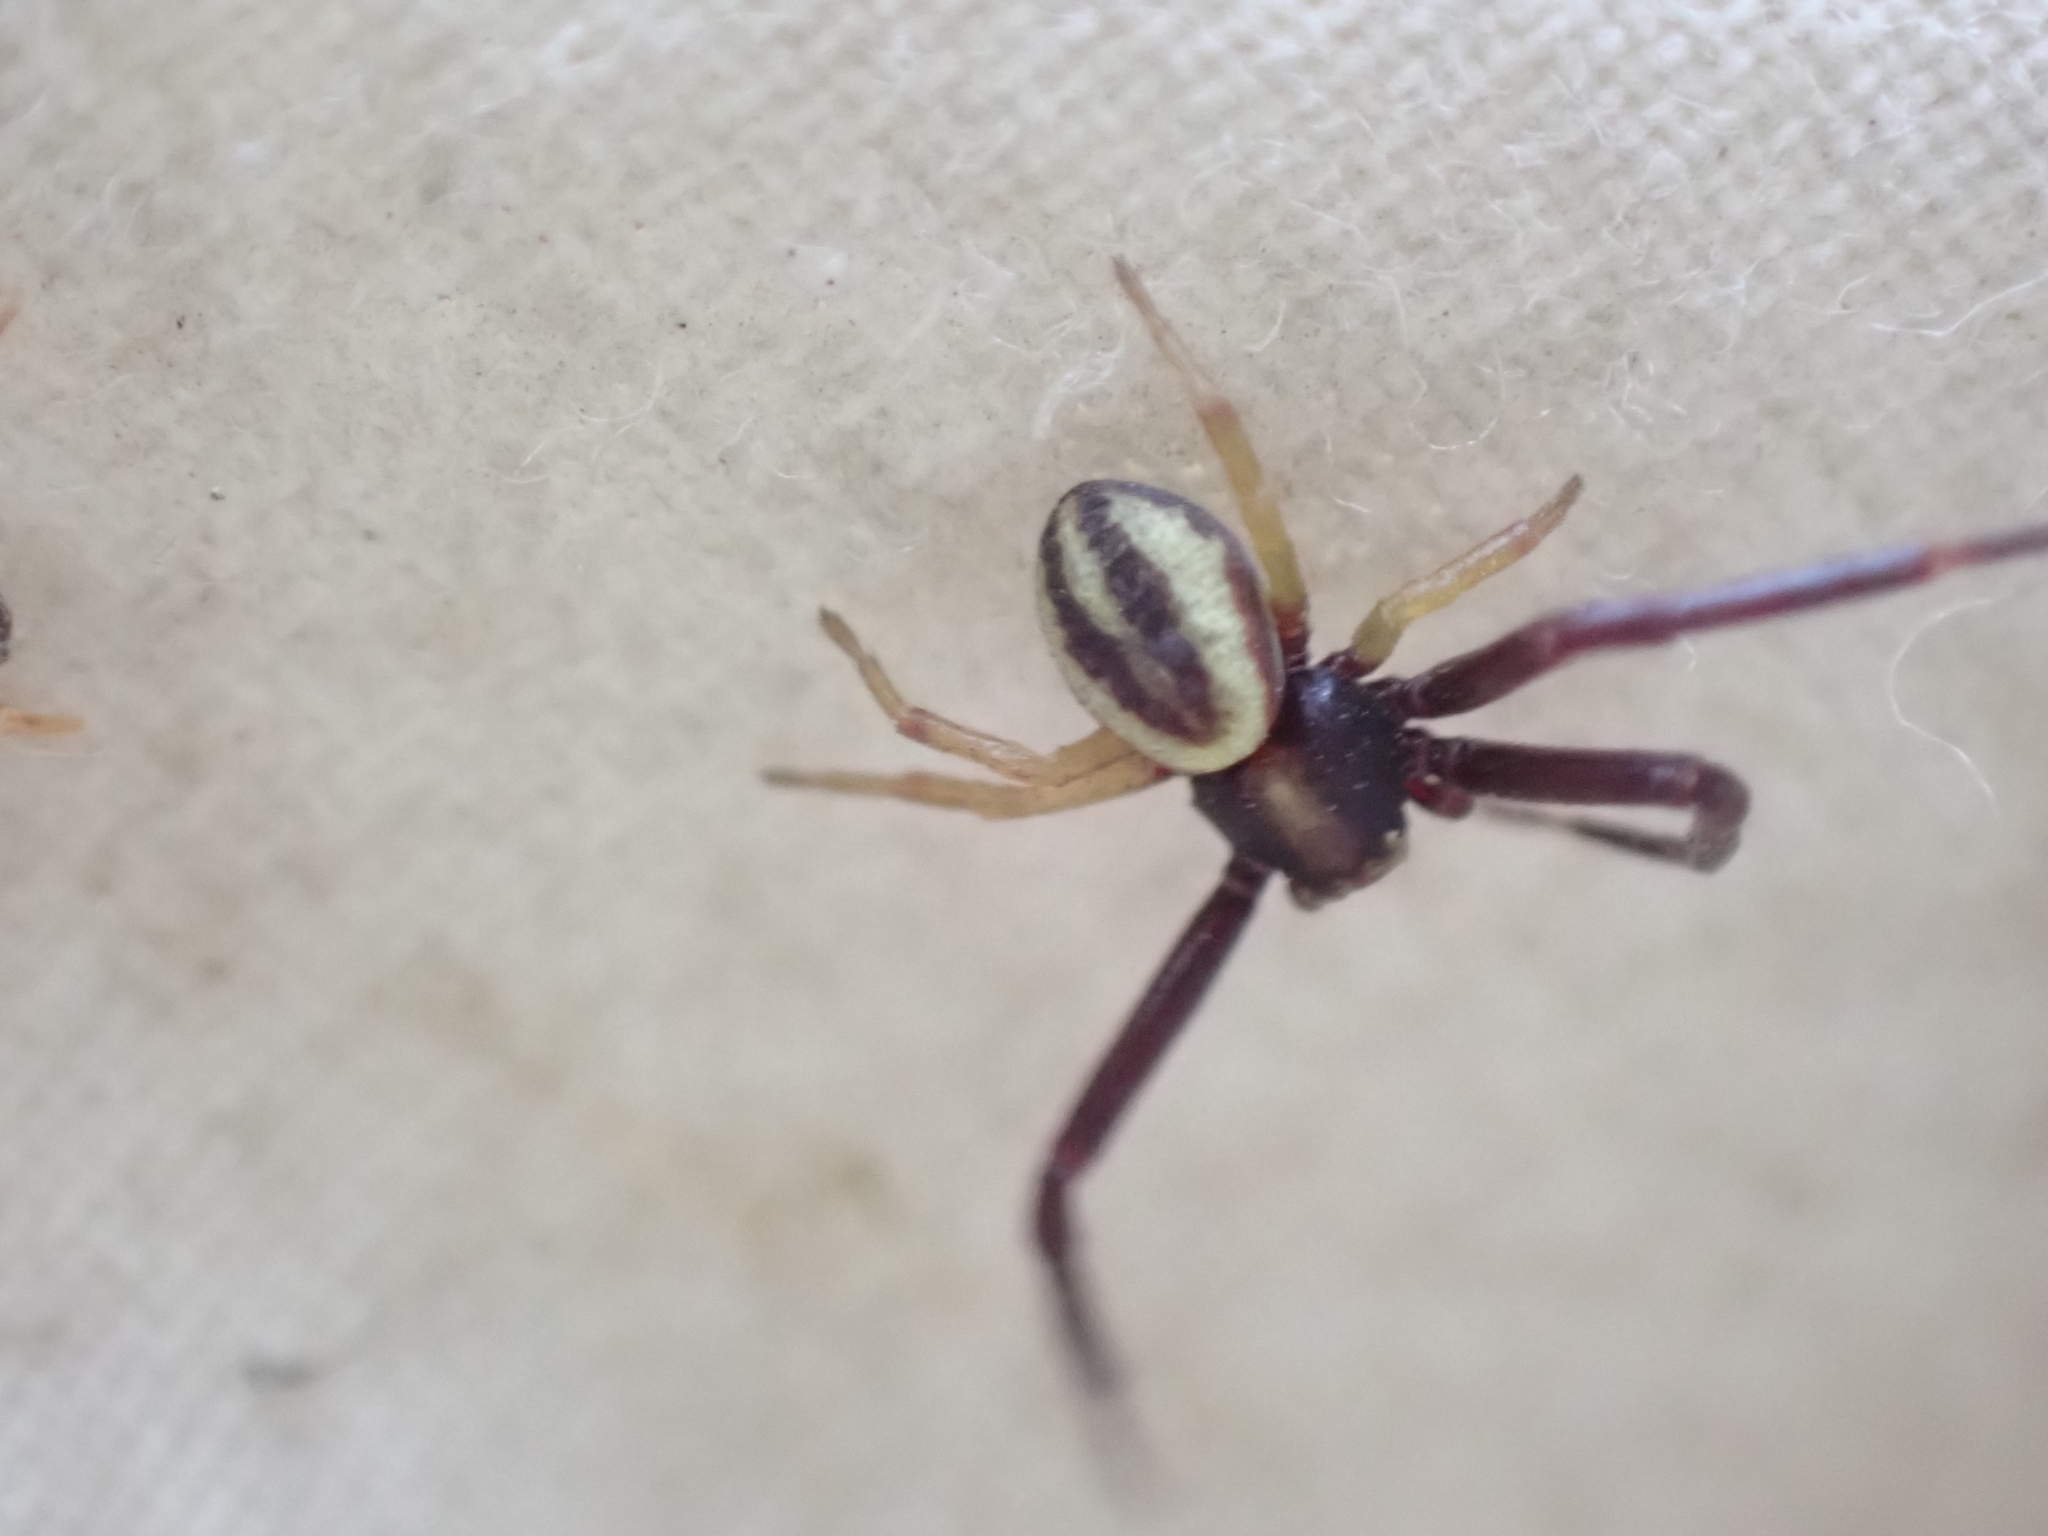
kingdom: Animalia
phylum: Arthropoda
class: Arachnida
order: Araneae
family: Thomisidae
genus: Misumena
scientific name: Misumena vatia
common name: Goldenrod crab spider
